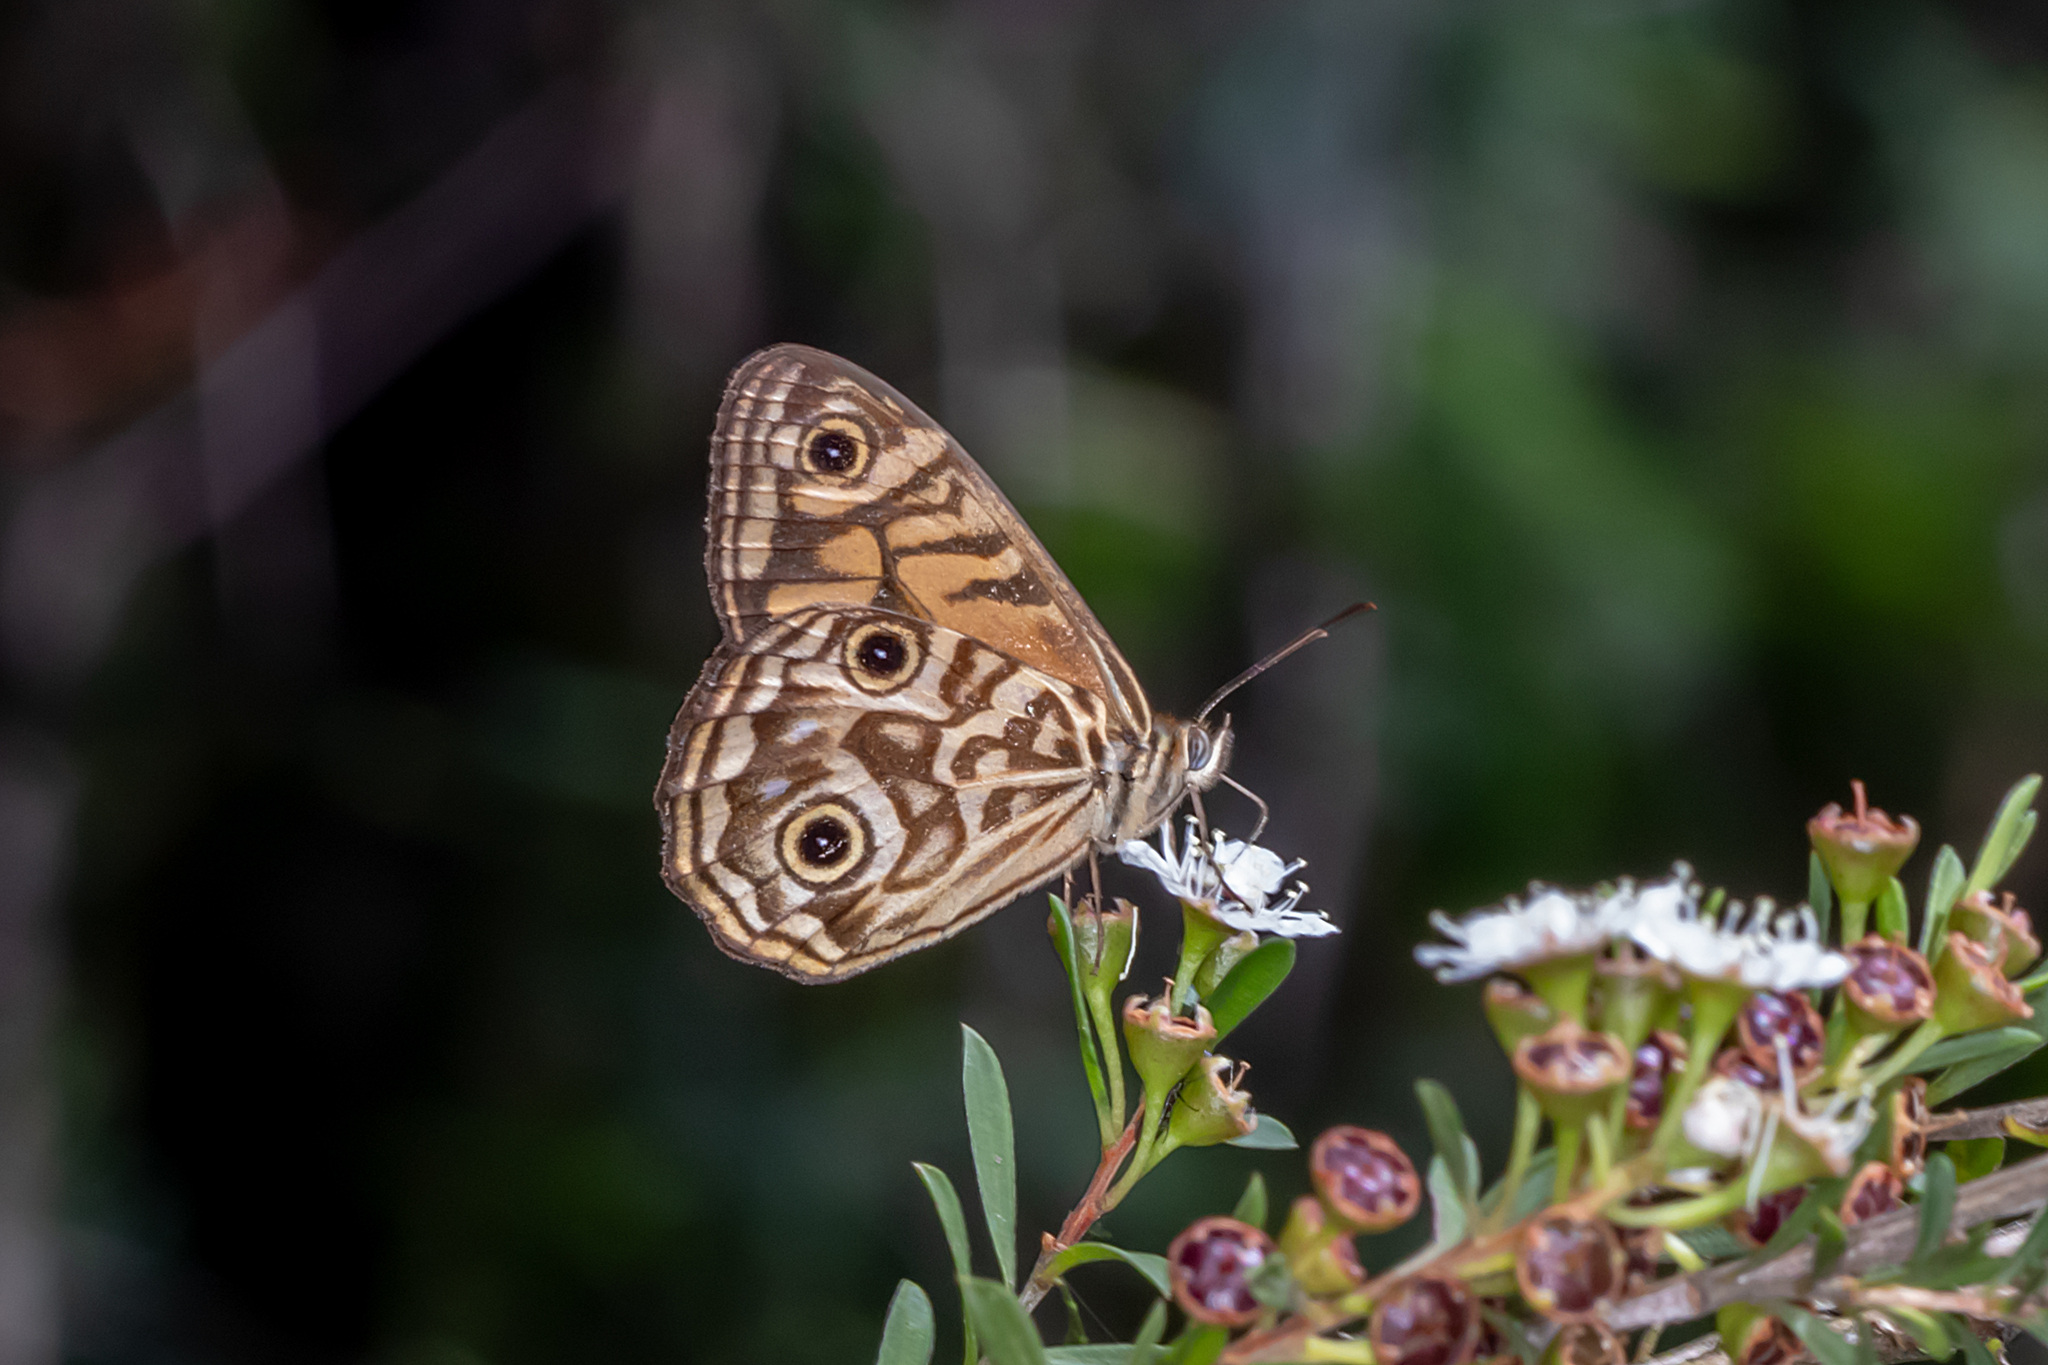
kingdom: Animalia
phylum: Arthropoda
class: Insecta
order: Lepidoptera
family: Nymphalidae
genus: Geitoneura
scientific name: Geitoneura acantha
